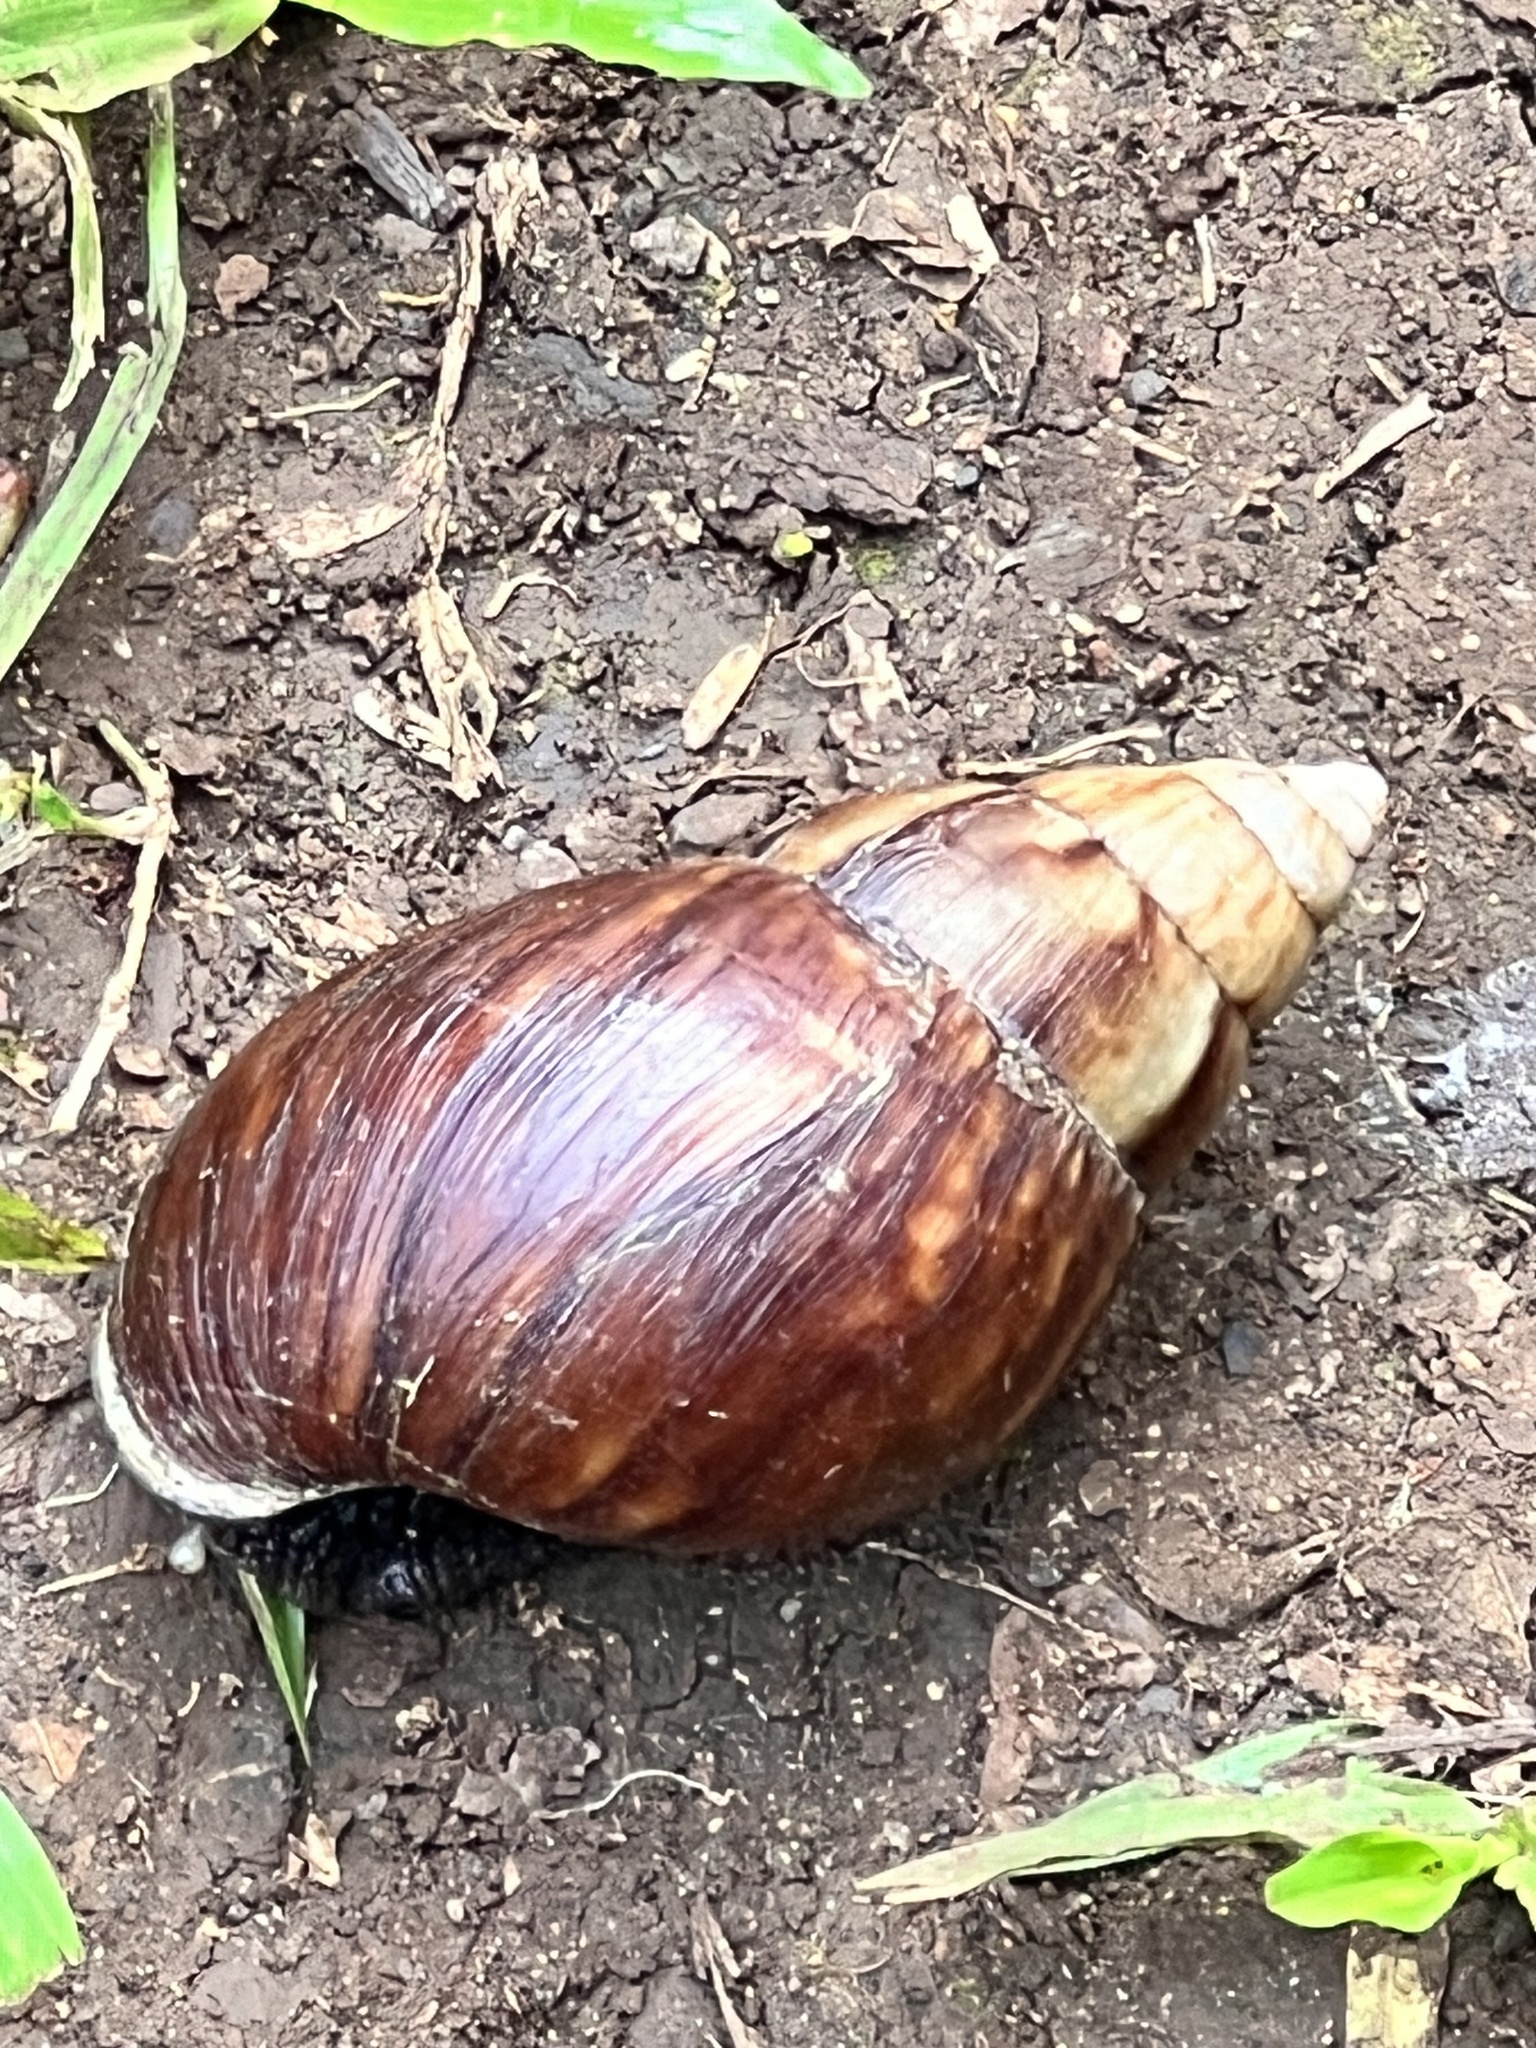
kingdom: Animalia
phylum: Mollusca
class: Gastropoda
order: Stylommatophora
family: Achatinidae
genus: Lissachatina
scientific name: Lissachatina fulica
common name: Giant african snail
